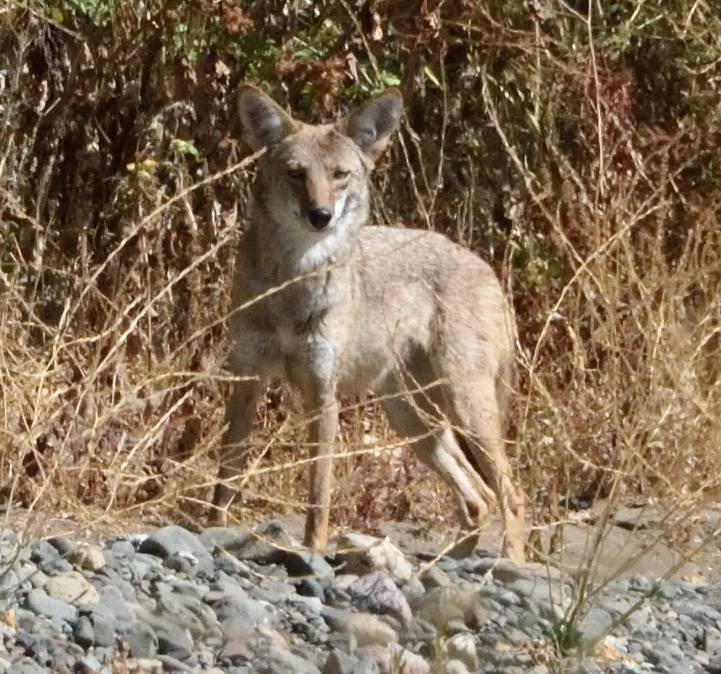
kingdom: Animalia
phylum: Chordata
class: Mammalia
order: Carnivora
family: Canidae
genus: Canis
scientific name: Canis latrans
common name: Coyote
